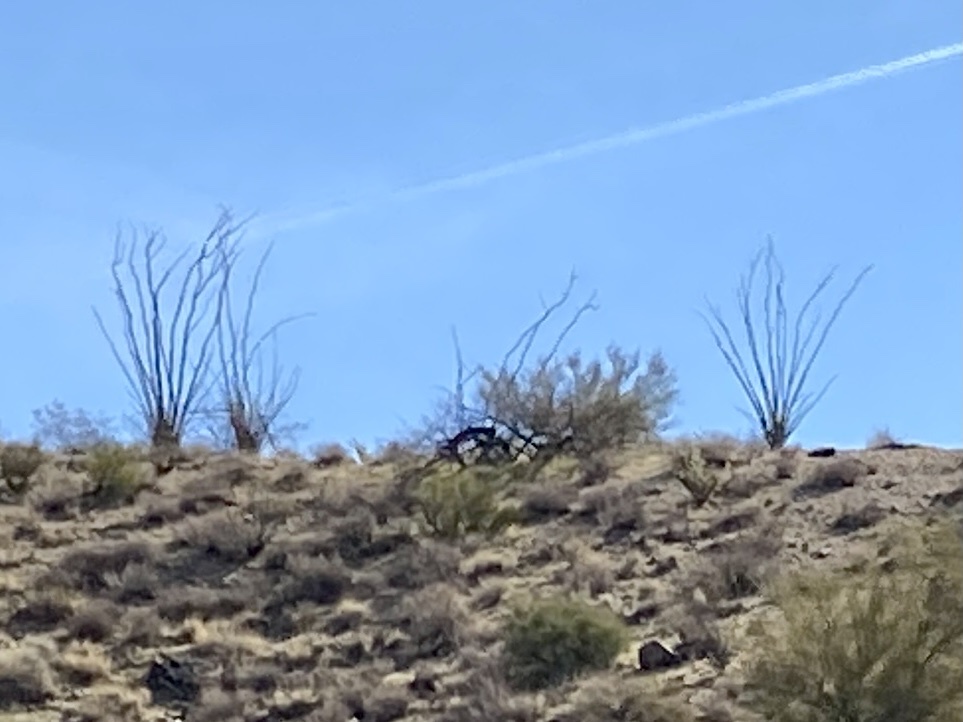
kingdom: Plantae
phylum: Tracheophyta
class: Magnoliopsida
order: Ericales
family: Fouquieriaceae
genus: Fouquieria
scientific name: Fouquieria splendens
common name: Vine-cactus
